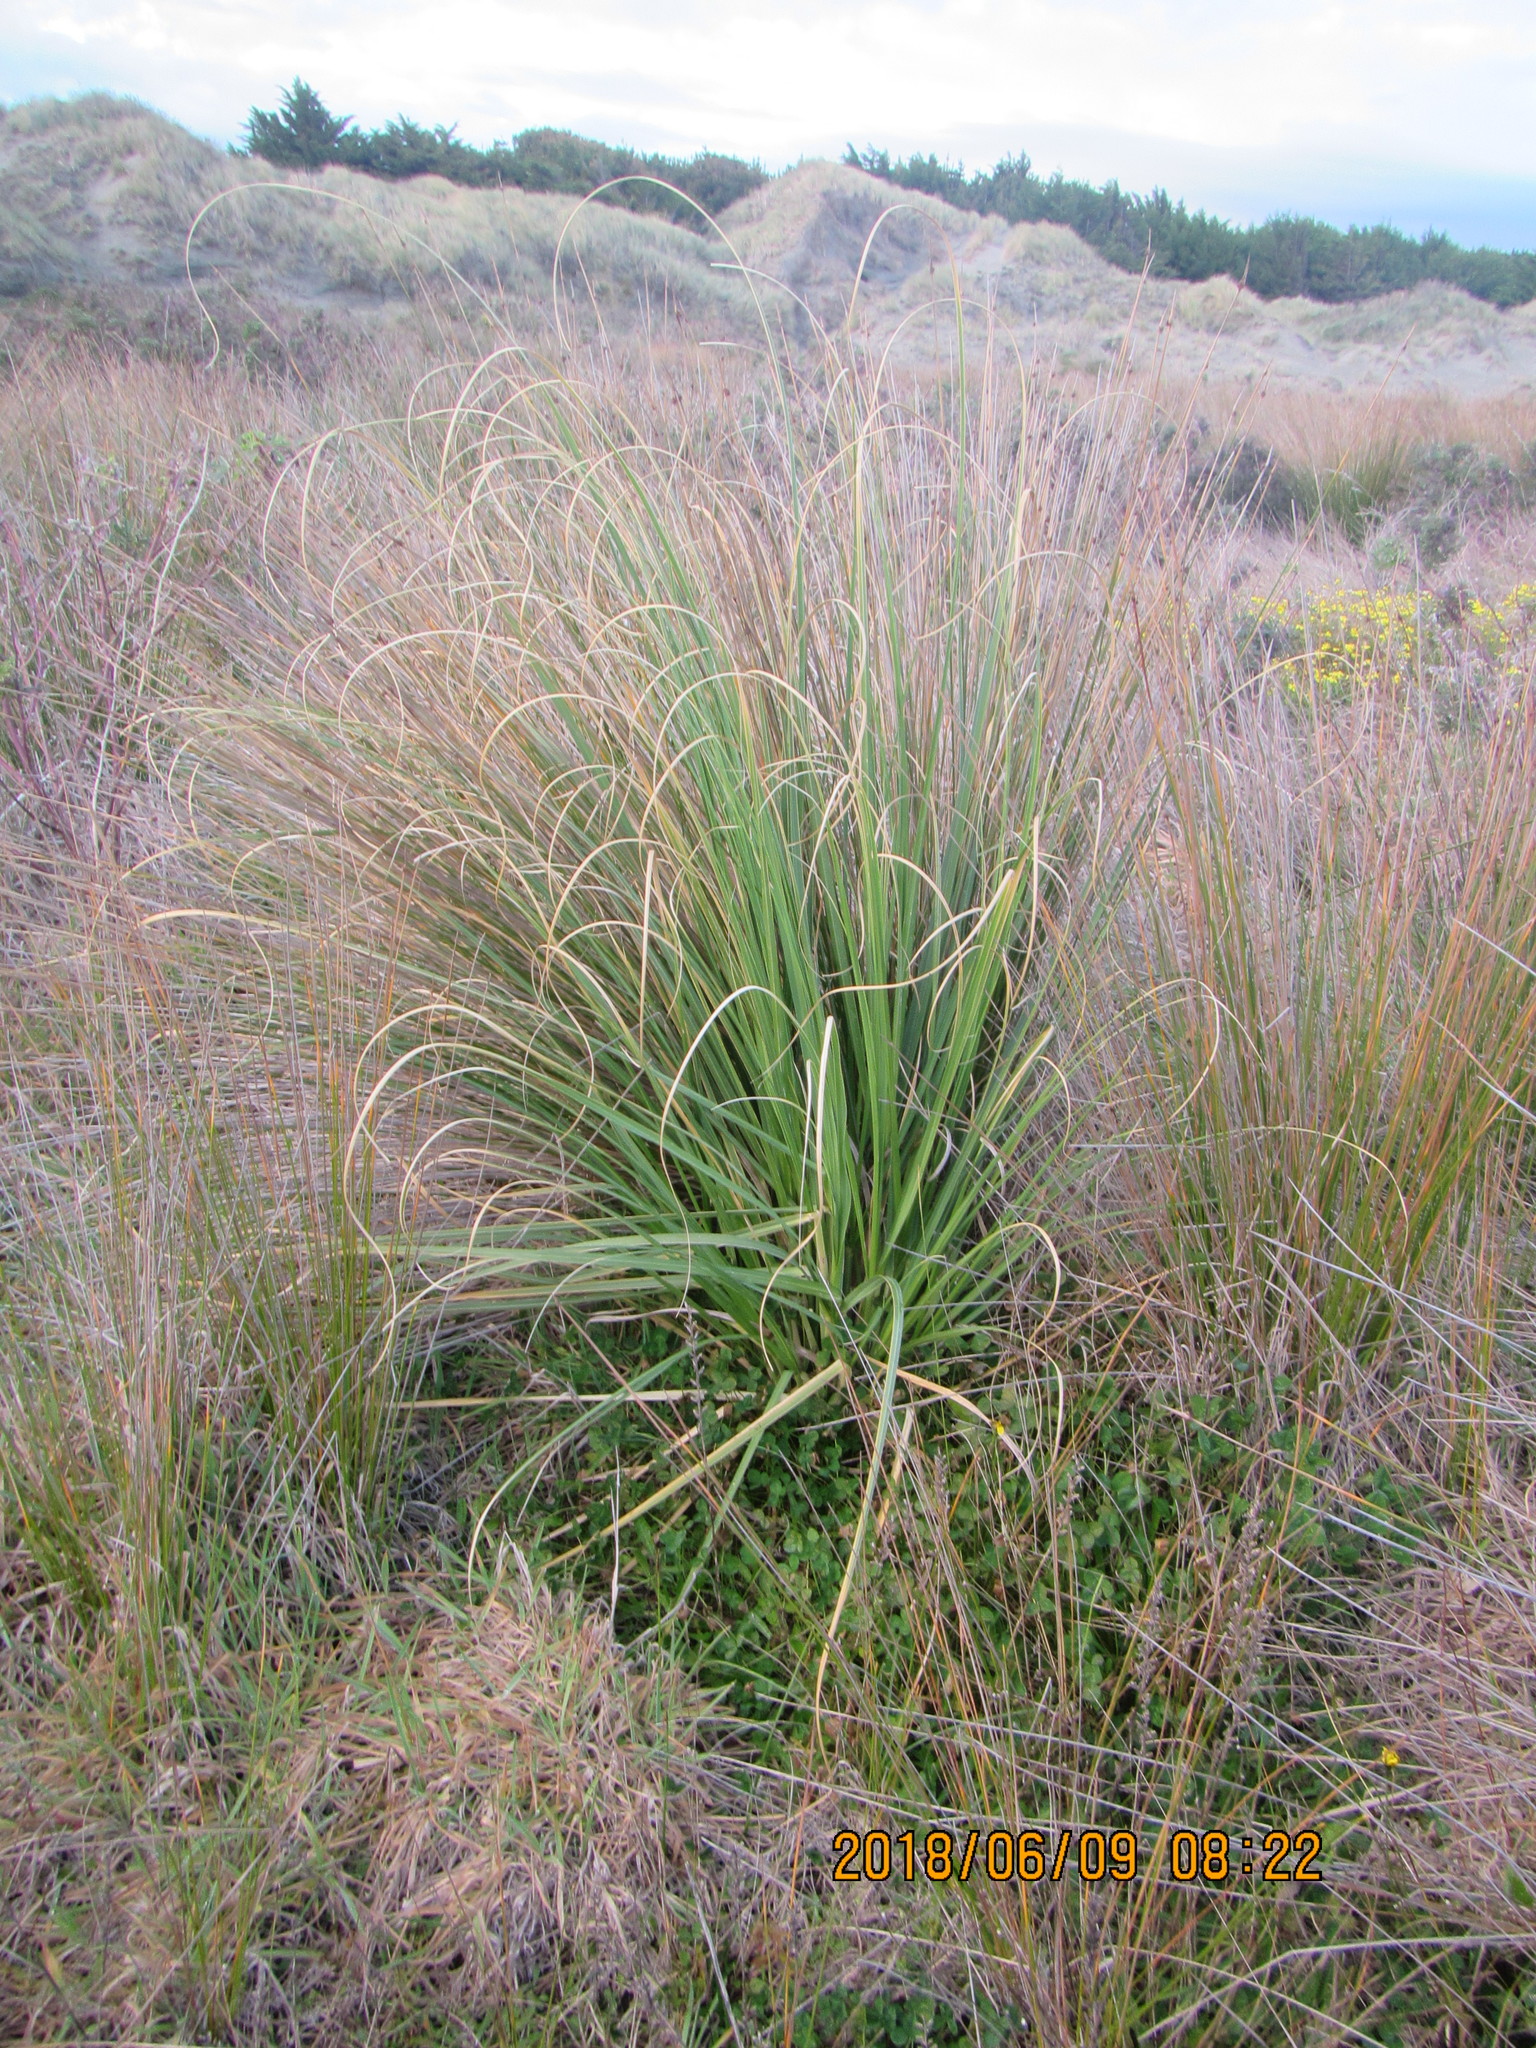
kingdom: Plantae
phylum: Tracheophyta
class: Liliopsida
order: Poales
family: Poaceae
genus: Cortaderia
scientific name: Cortaderia selloana
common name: Uruguayan pampas grass
